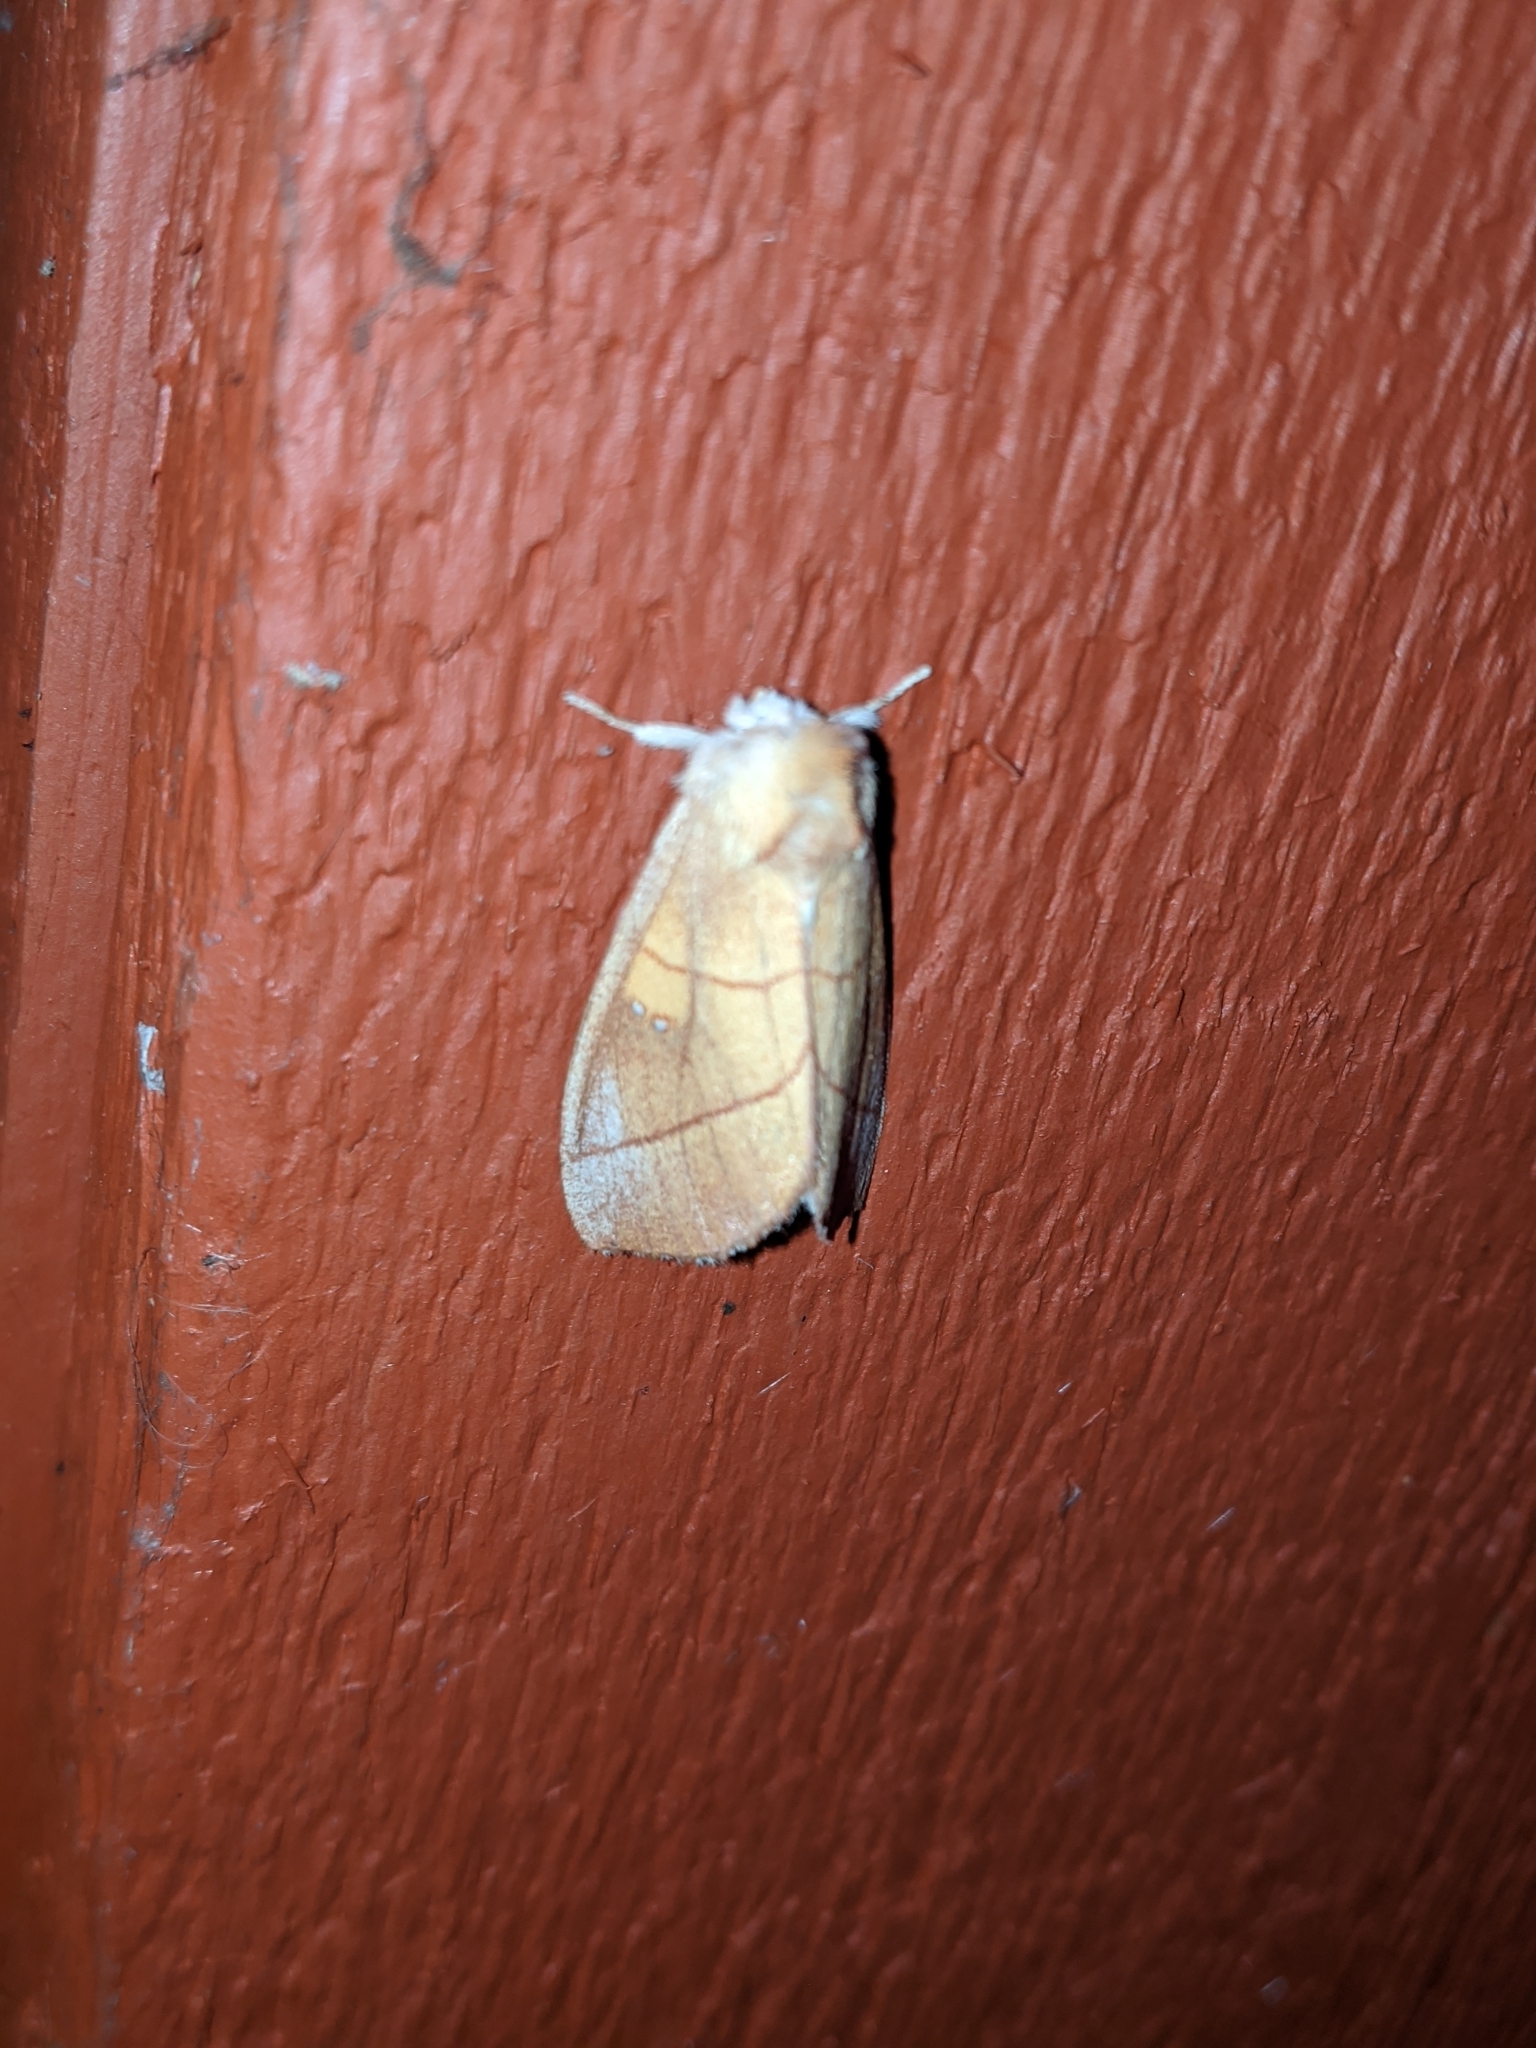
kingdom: Animalia
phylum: Arthropoda
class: Insecta
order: Lepidoptera
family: Notodontidae
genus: Nadata
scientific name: Nadata gibbosa
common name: White-dotted prominent
